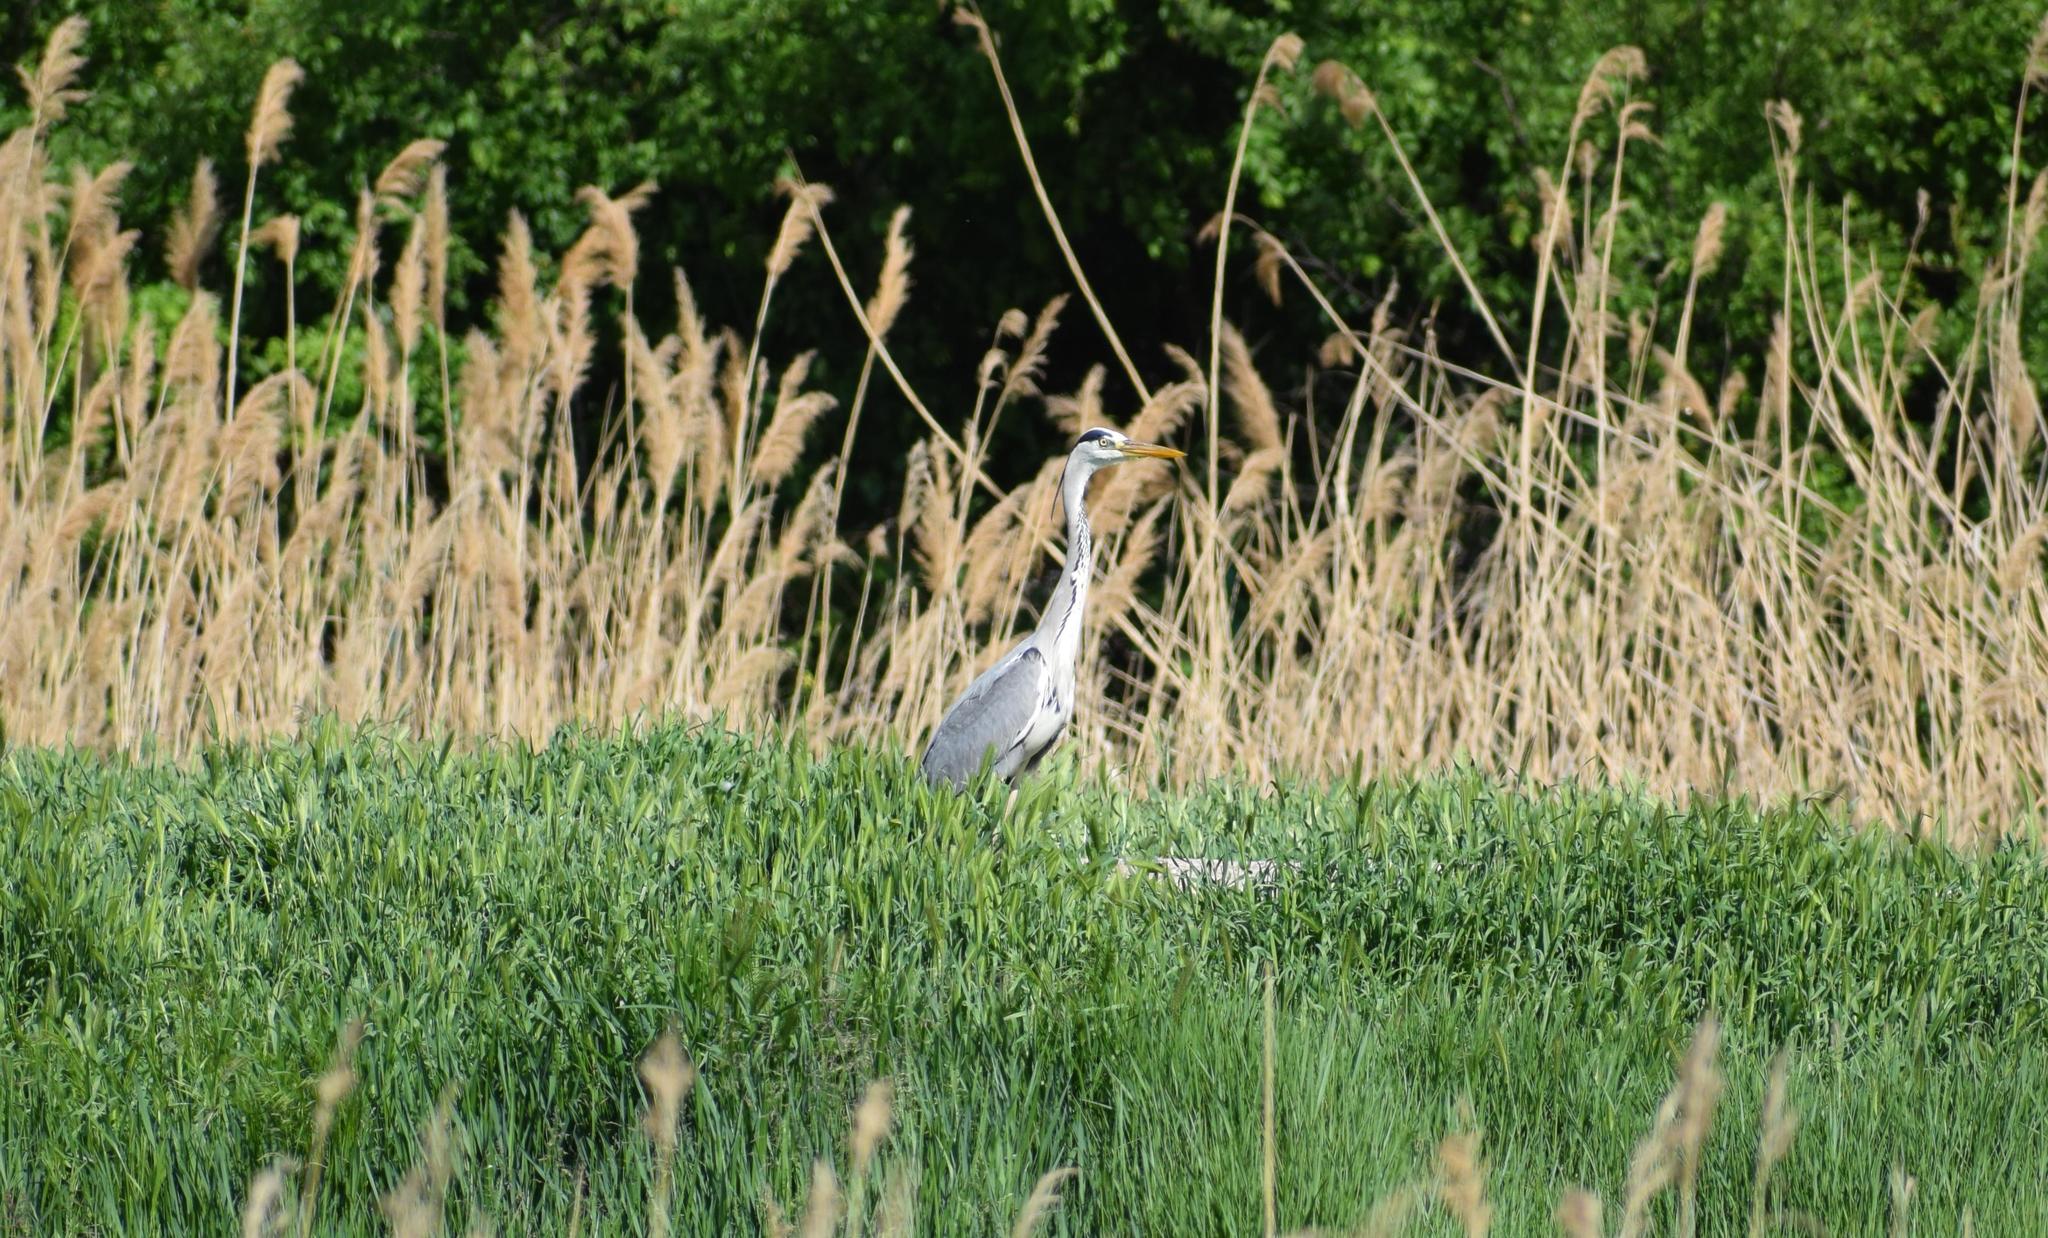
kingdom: Animalia
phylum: Chordata
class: Aves
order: Pelecaniformes
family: Ardeidae
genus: Ardea
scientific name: Ardea cinerea
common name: Grey heron
